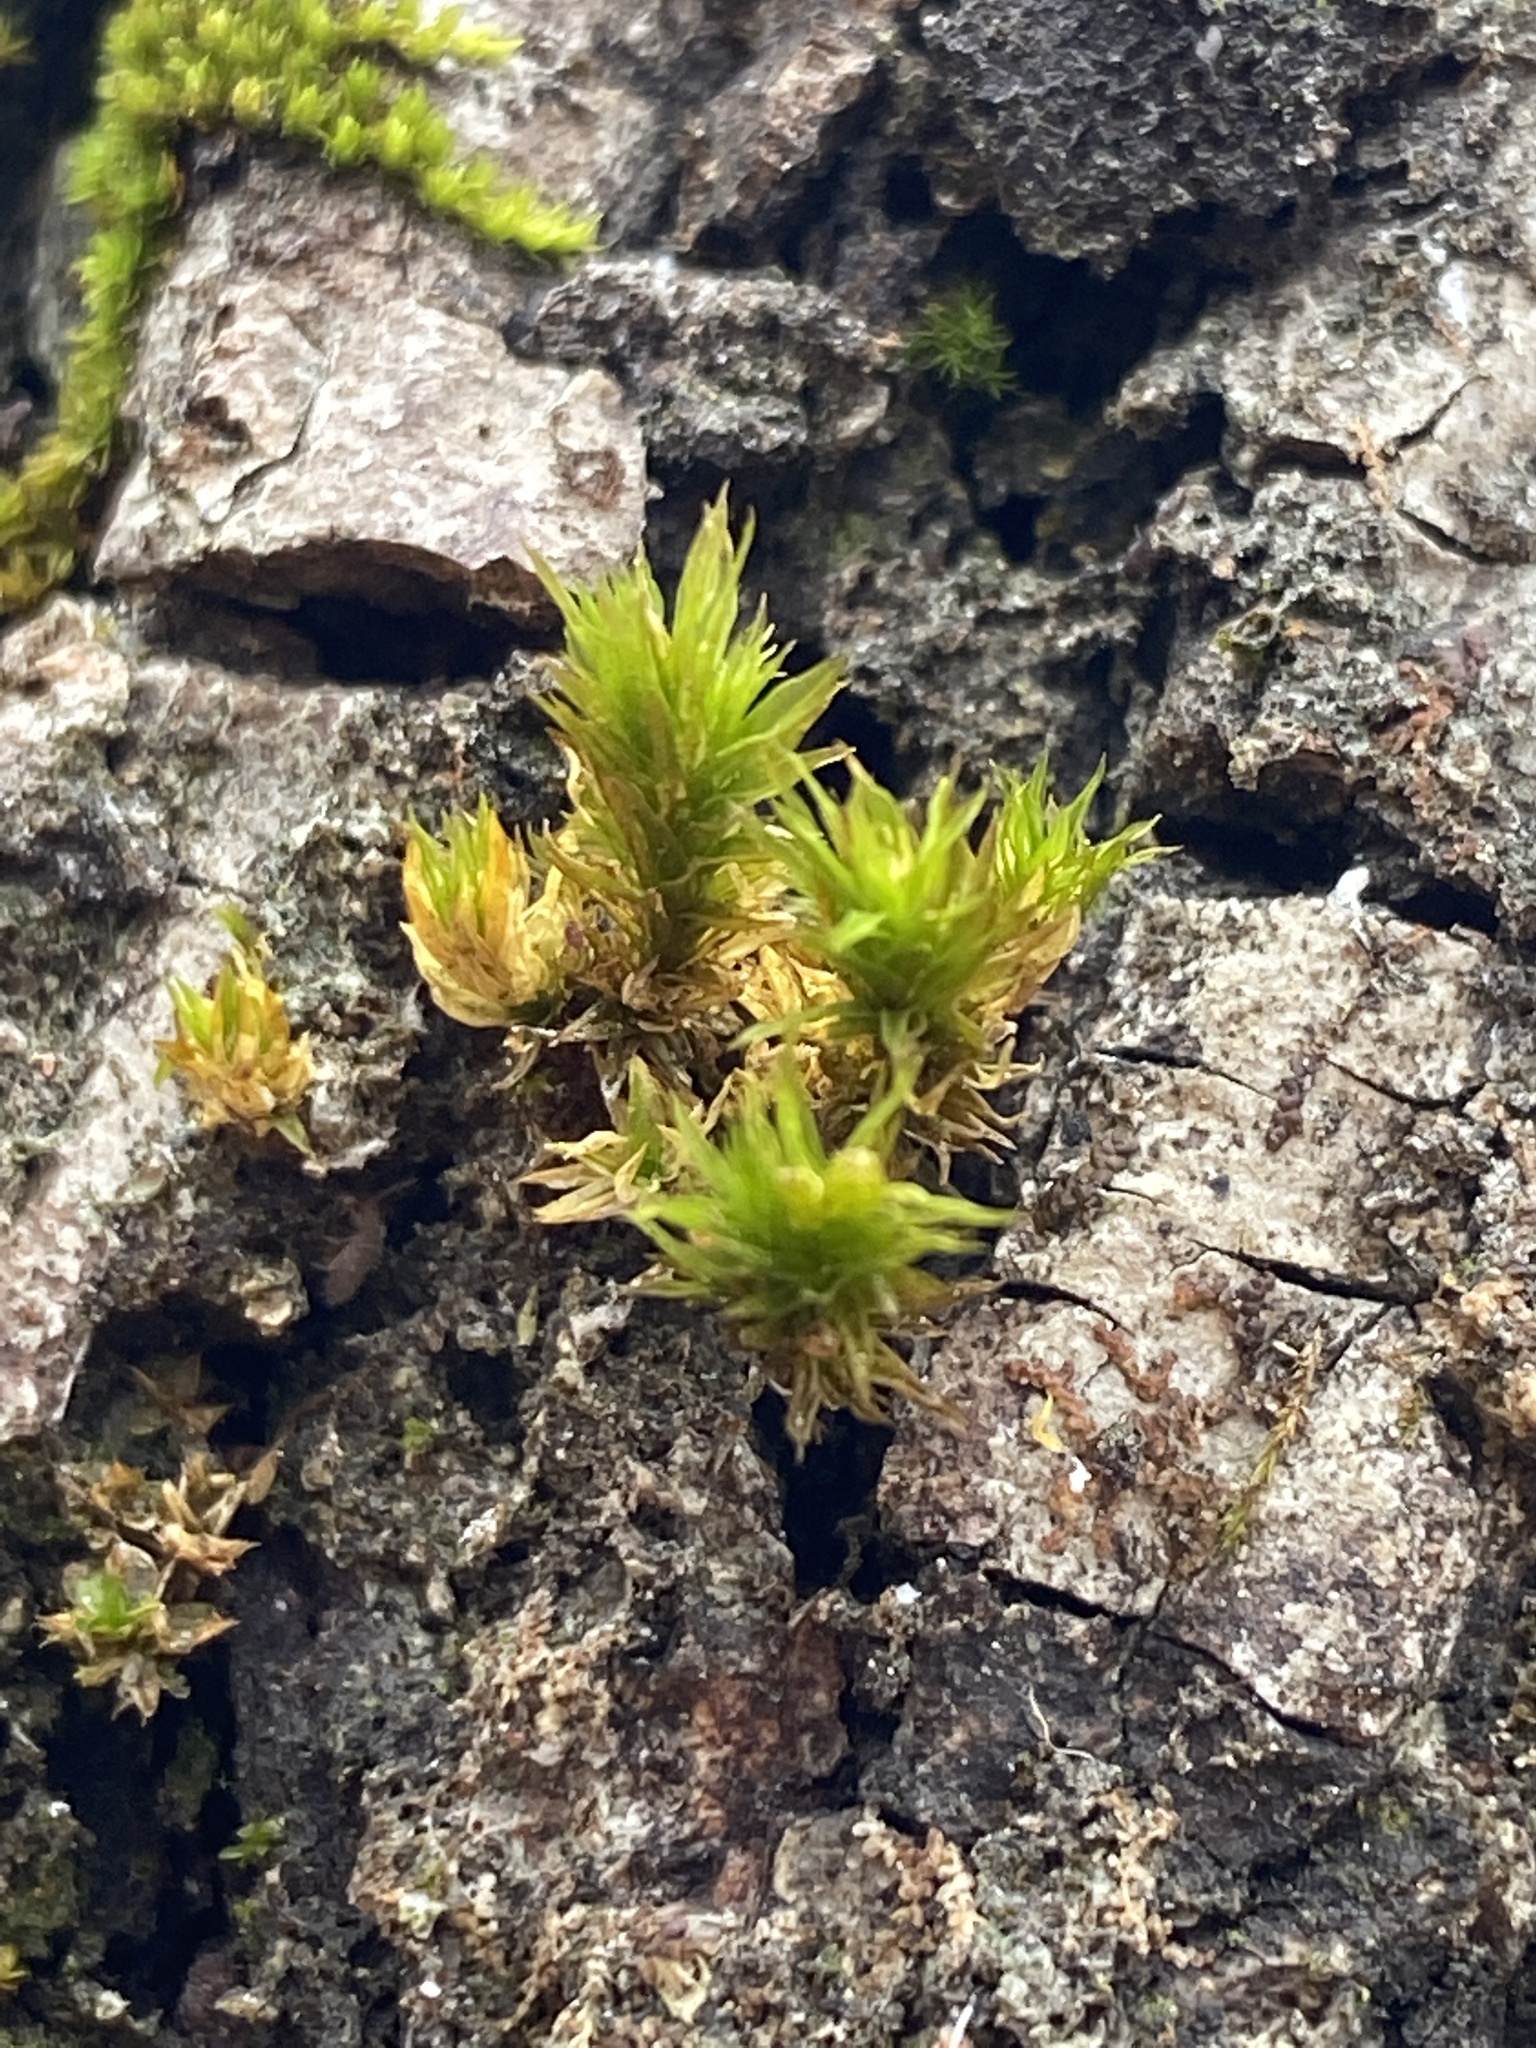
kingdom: Plantae
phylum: Bryophyta
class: Bryopsida
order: Orthotrichales
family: Orthotrichaceae
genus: Lewinskya
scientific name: Lewinskya keeverae
